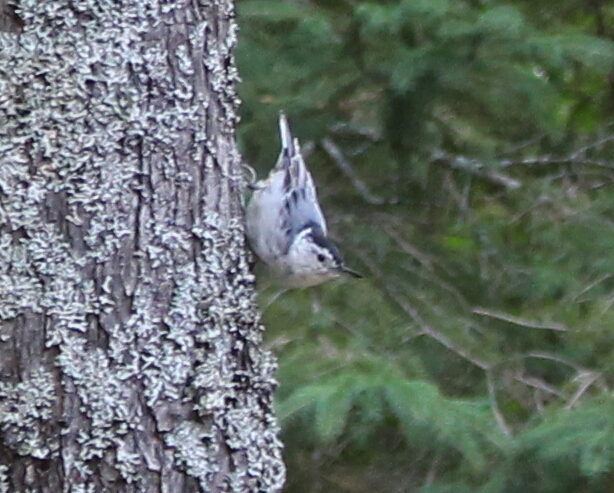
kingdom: Animalia
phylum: Chordata
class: Aves
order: Passeriformes
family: Sittidae
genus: Sitta
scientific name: Sitta carolinensis
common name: White-breasted nuthatch
